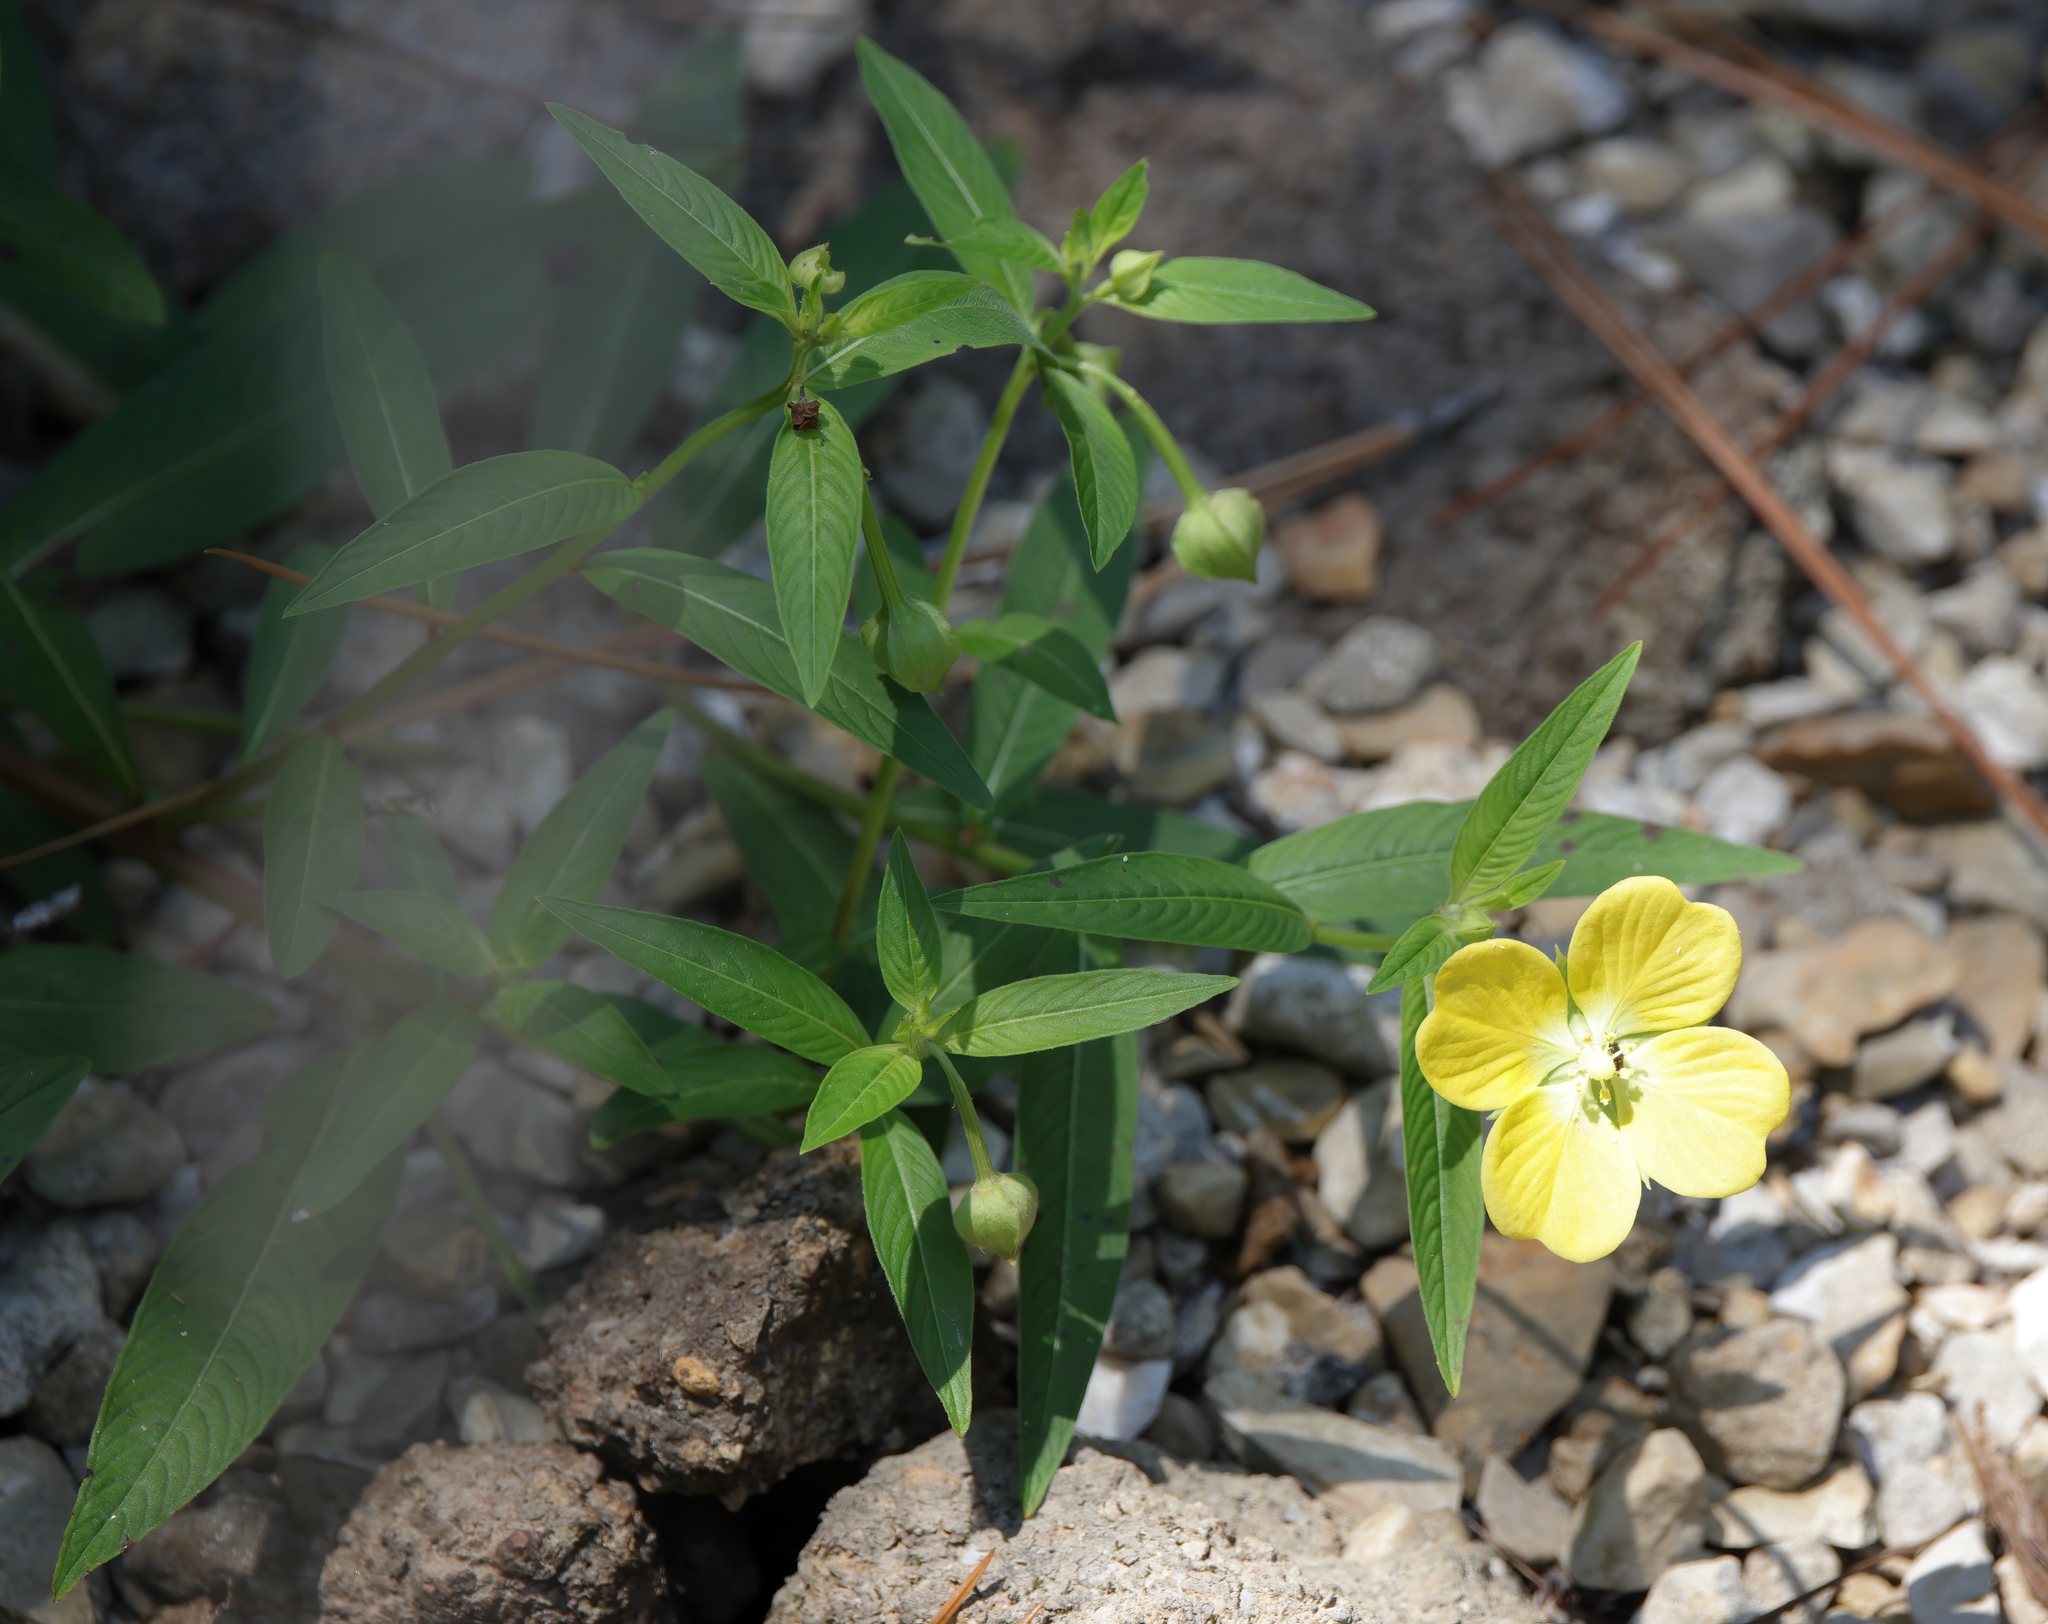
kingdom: Plantae
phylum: Tracheophyta
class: Magnoliopsida
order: Myrtales
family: Onagraceae
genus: Ludwigia
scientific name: Ludwigia octovalvis
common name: Water-primrose
